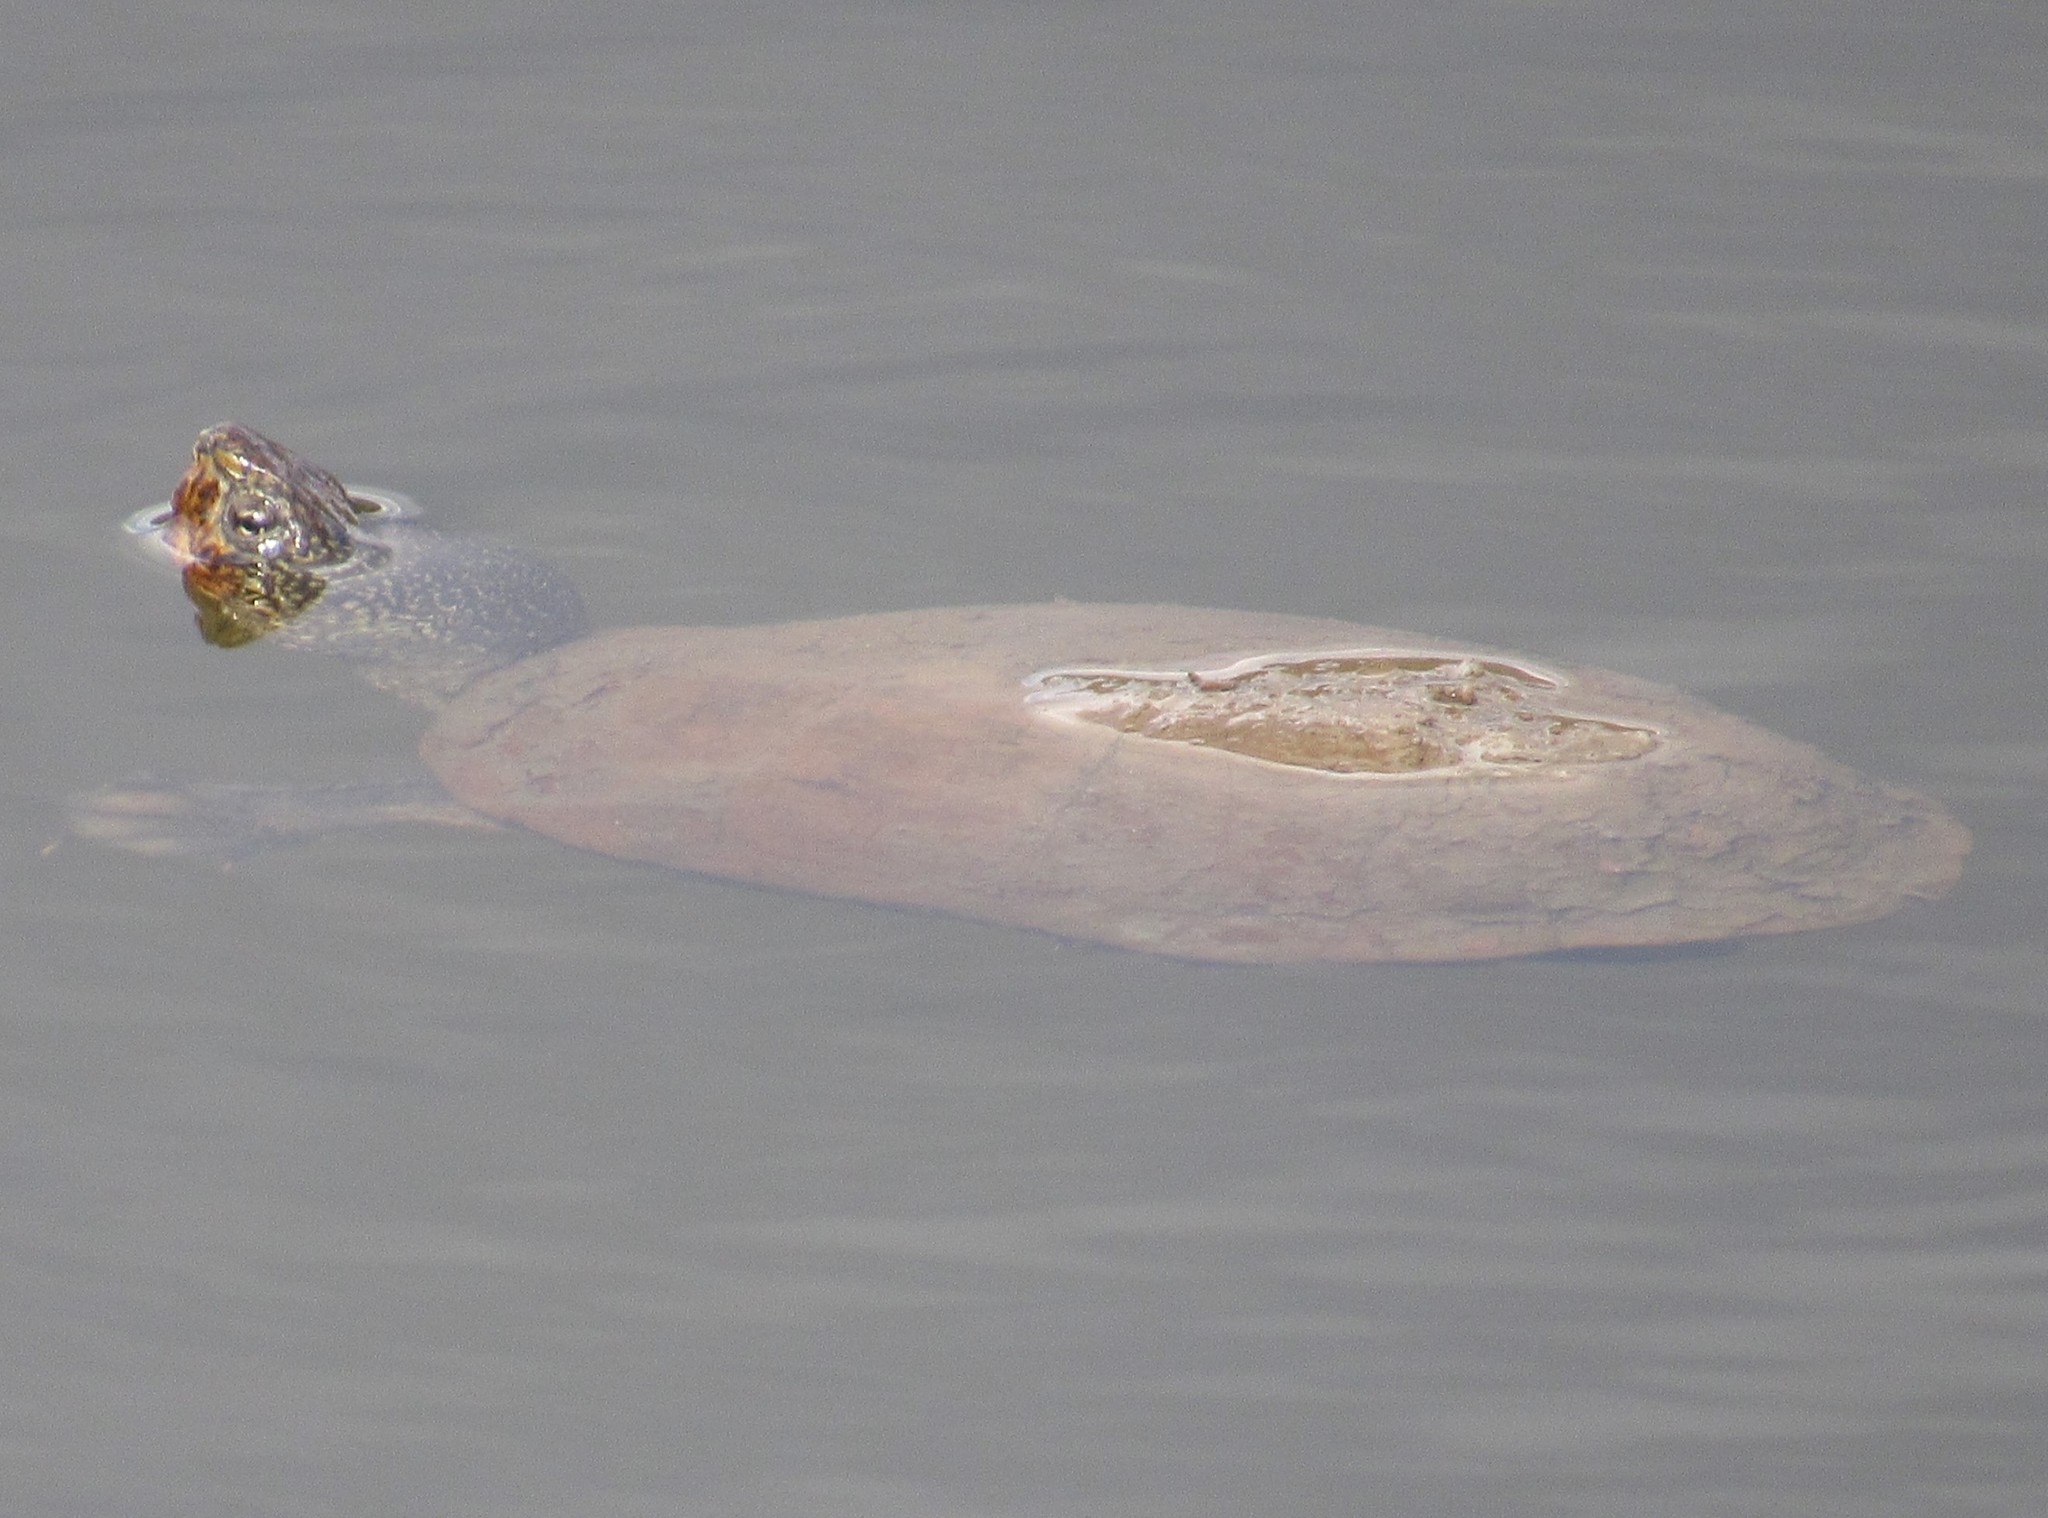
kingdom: Animalia
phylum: Chordata
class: Testudines
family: Kinosternidae
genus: Kinosternon
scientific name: Kinosternon integrum
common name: Mexican mud turtle
